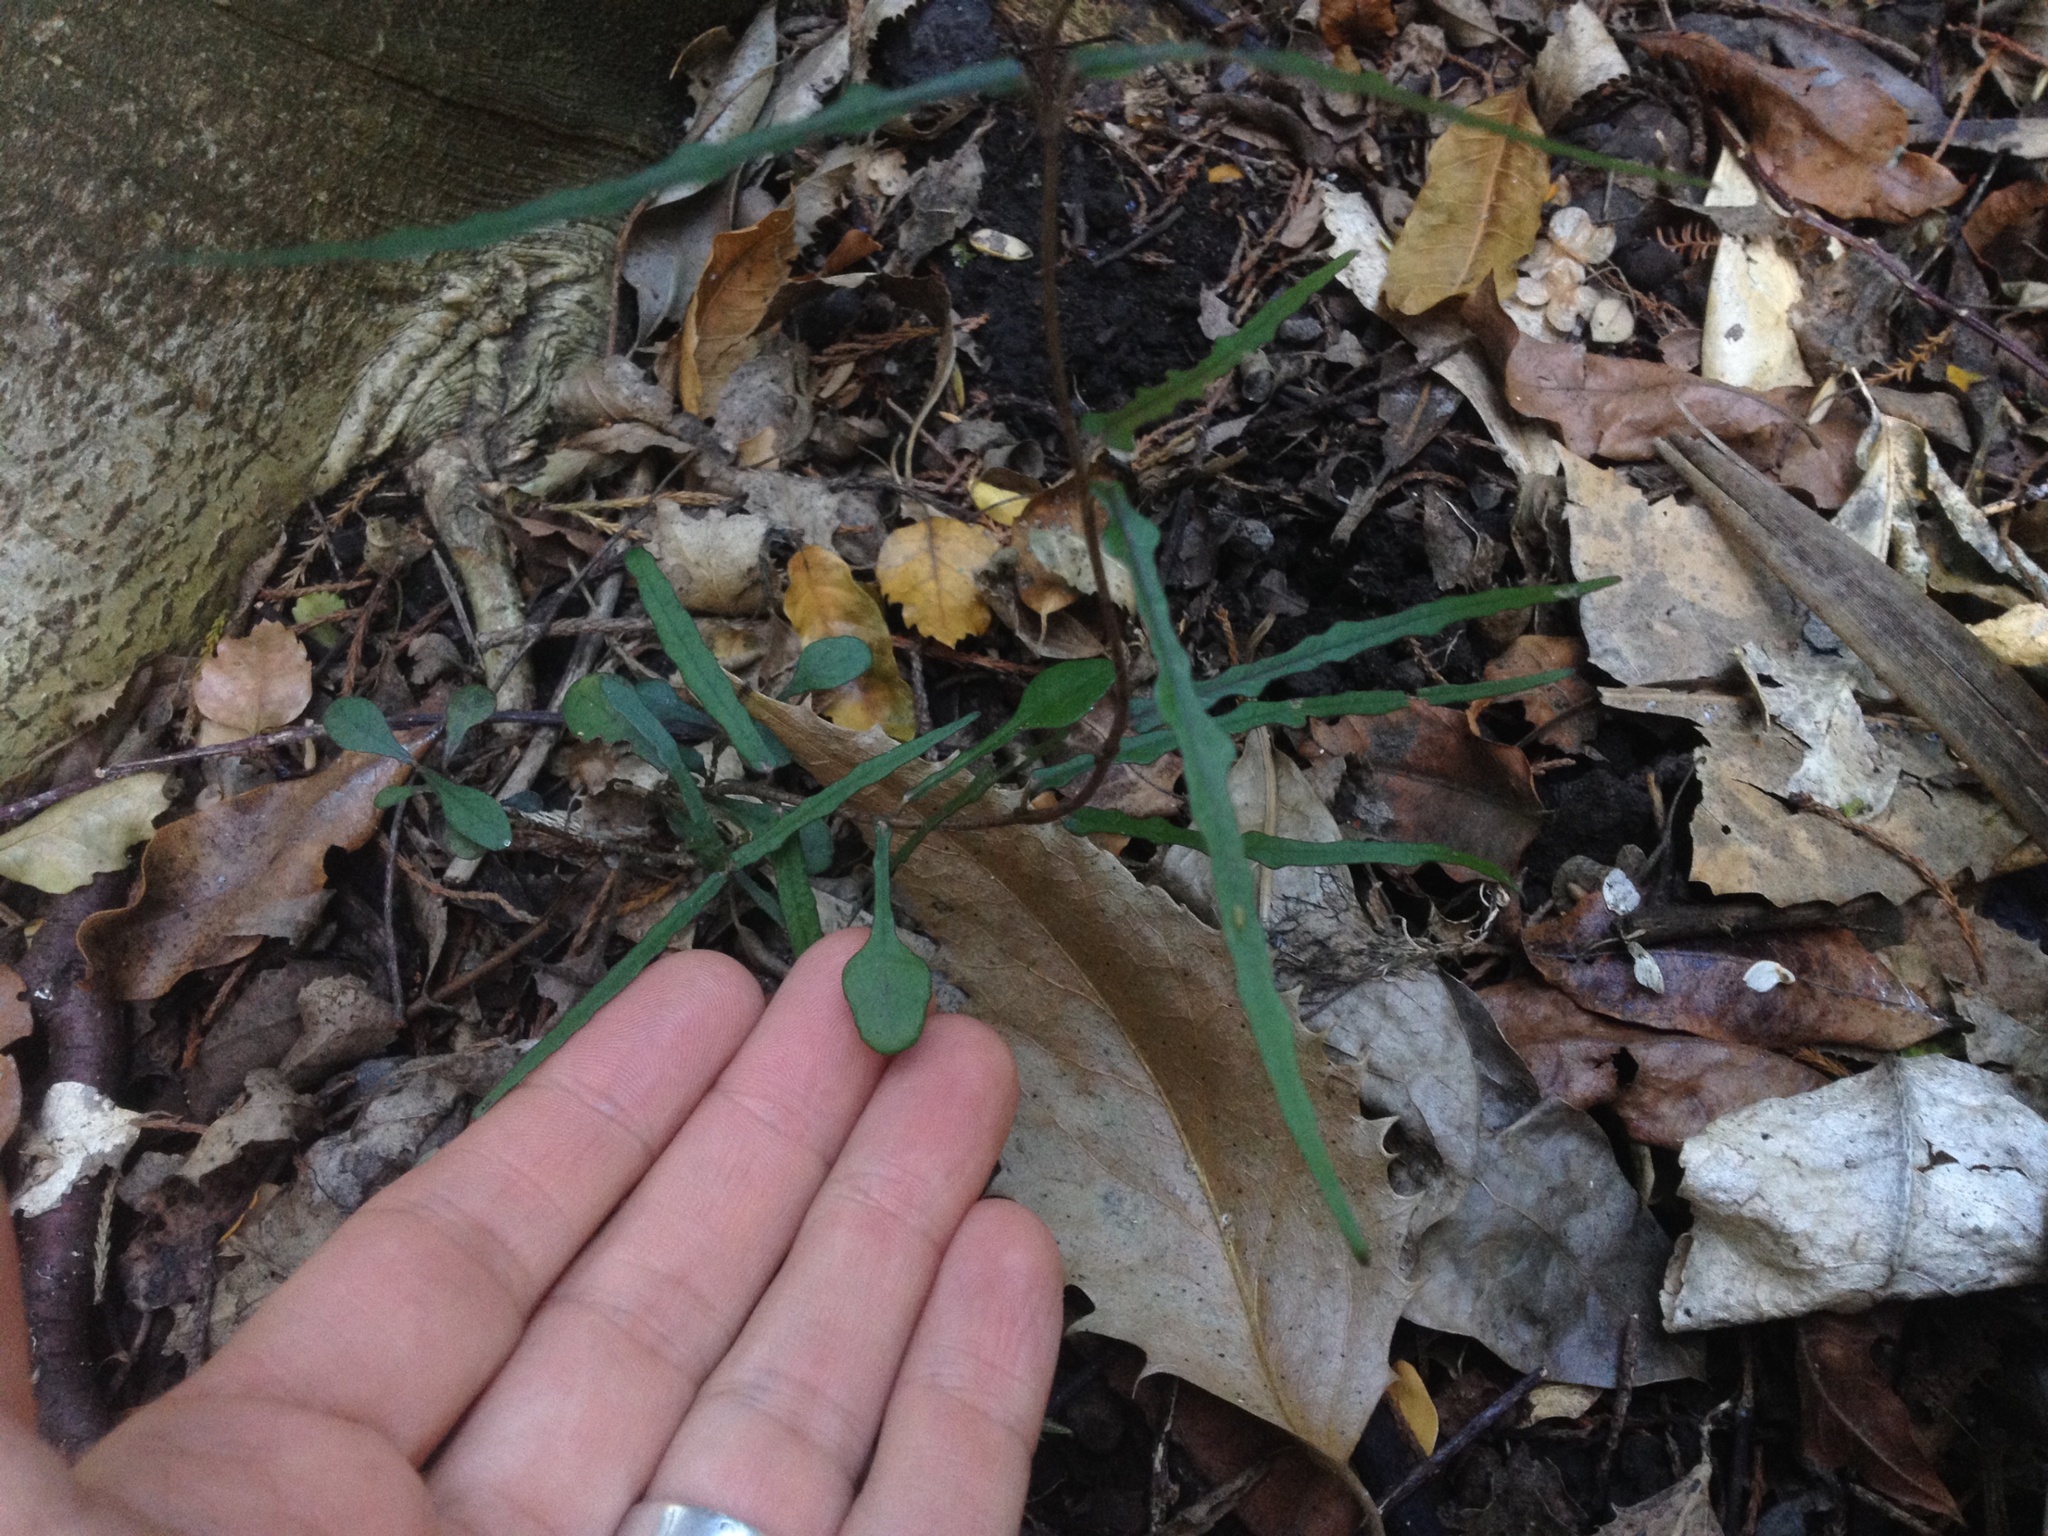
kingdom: Plantae
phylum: Tracheophyta
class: Magnoliopsida
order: Gentianales
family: Apocynaceae
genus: Parsonsia
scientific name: Parsonsia heterophylla
